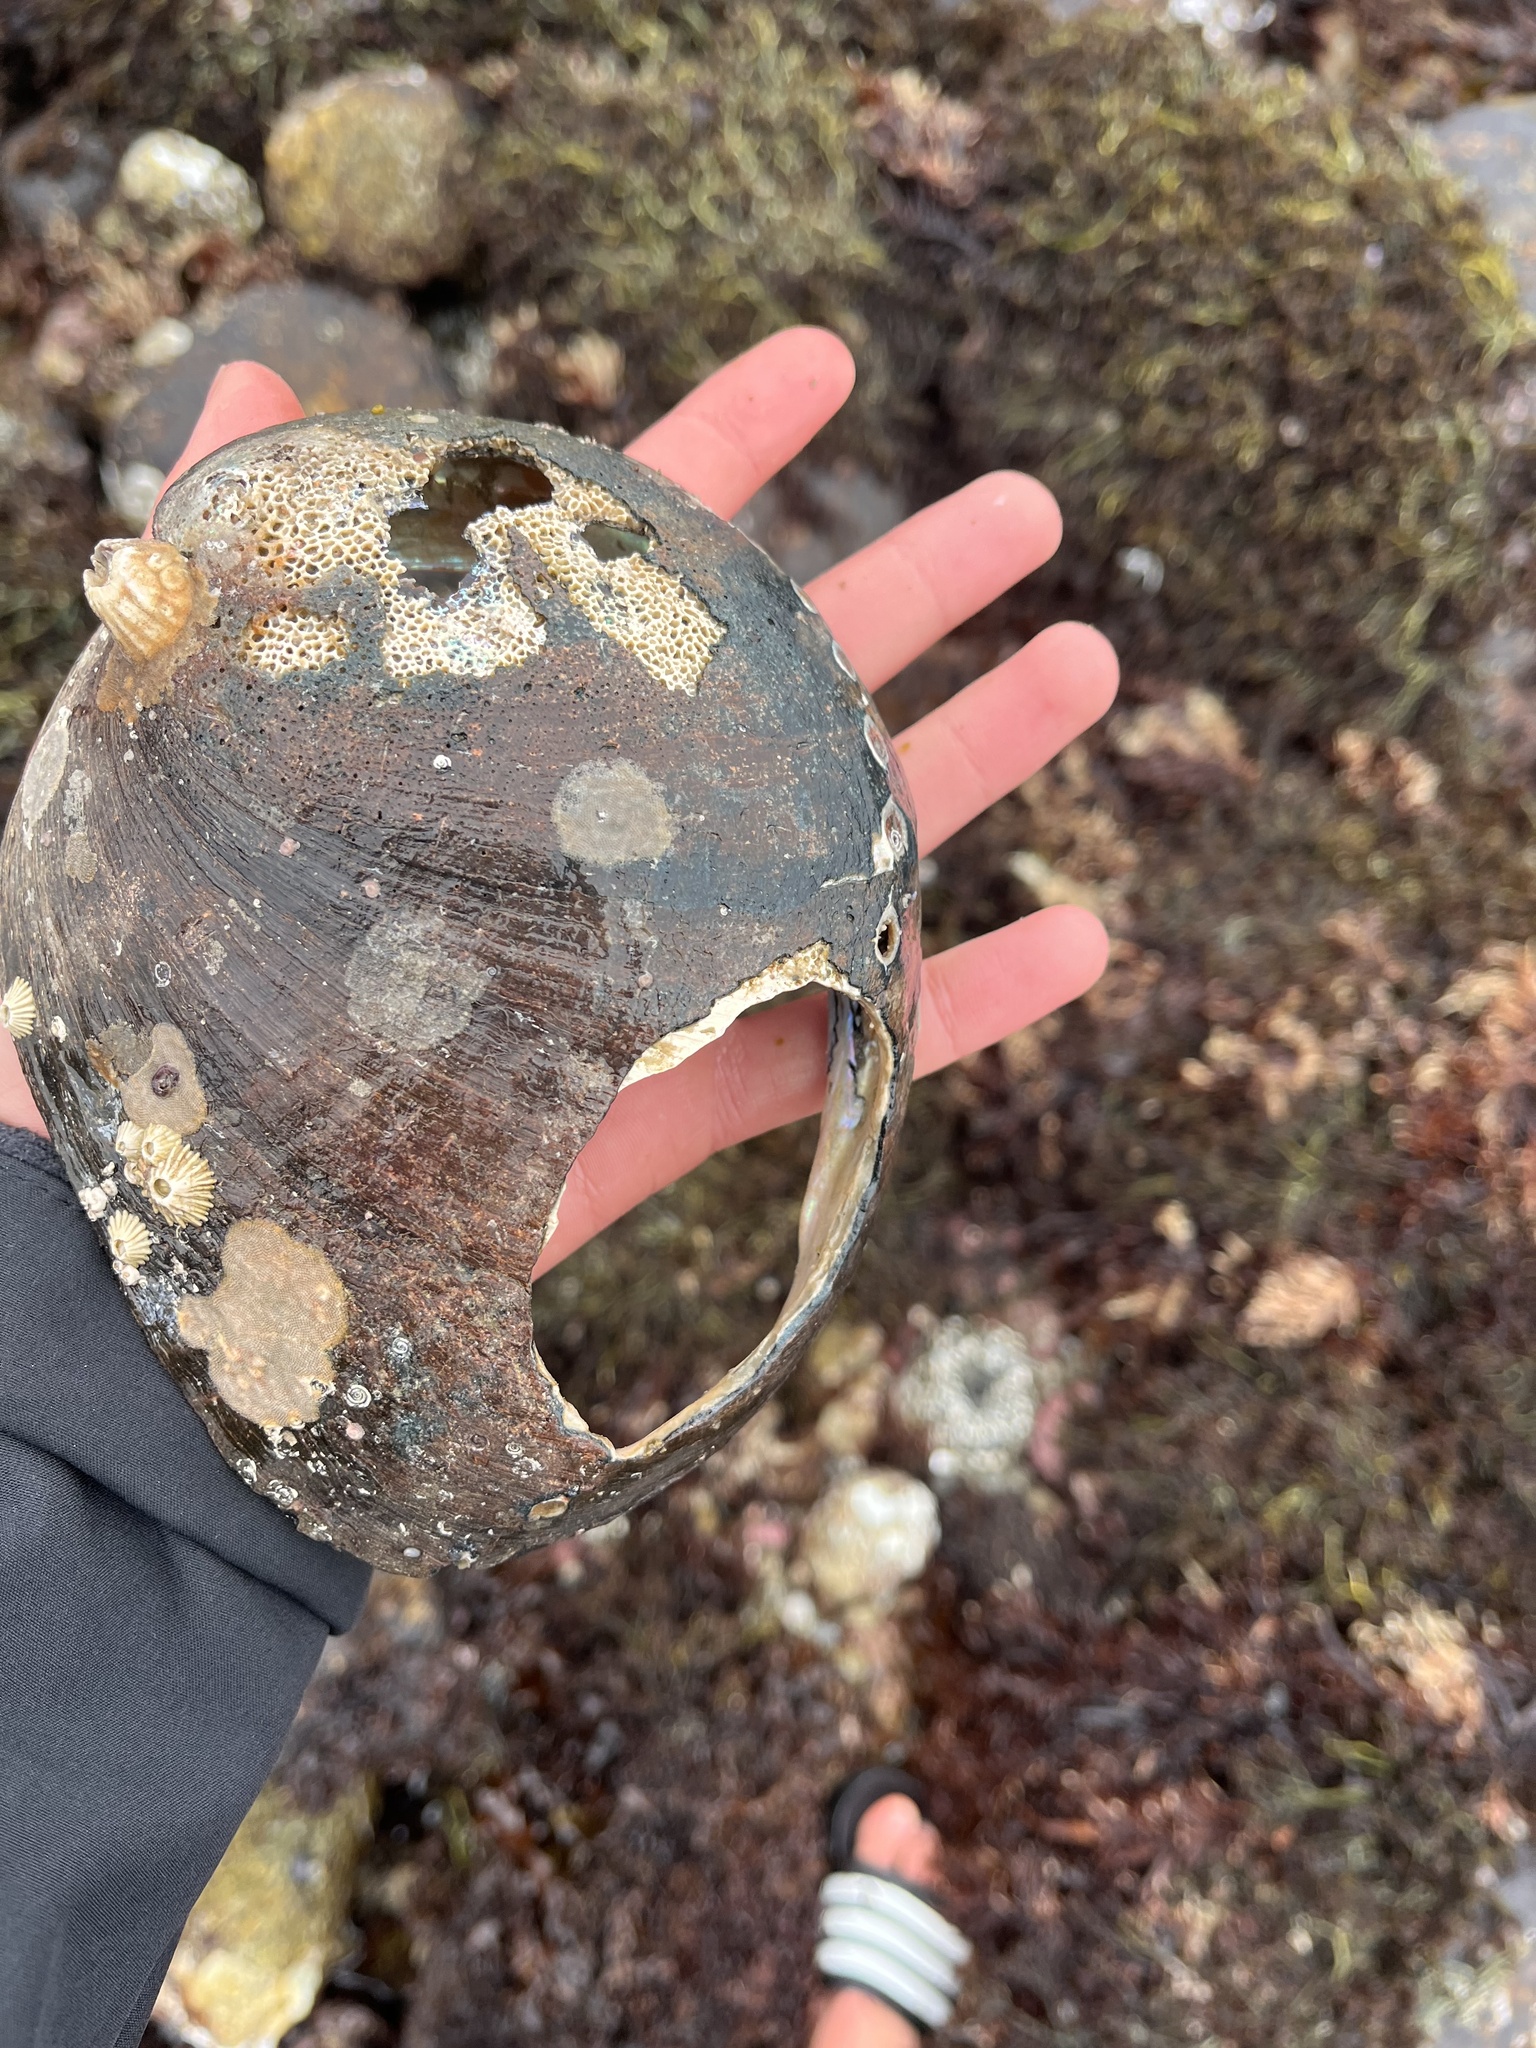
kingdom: Animalia
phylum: Mollusca
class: Gastropoda
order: Lepetellida
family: Haliotidae
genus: Haliotis
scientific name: Haliotis cracherodii
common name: Black abalone
